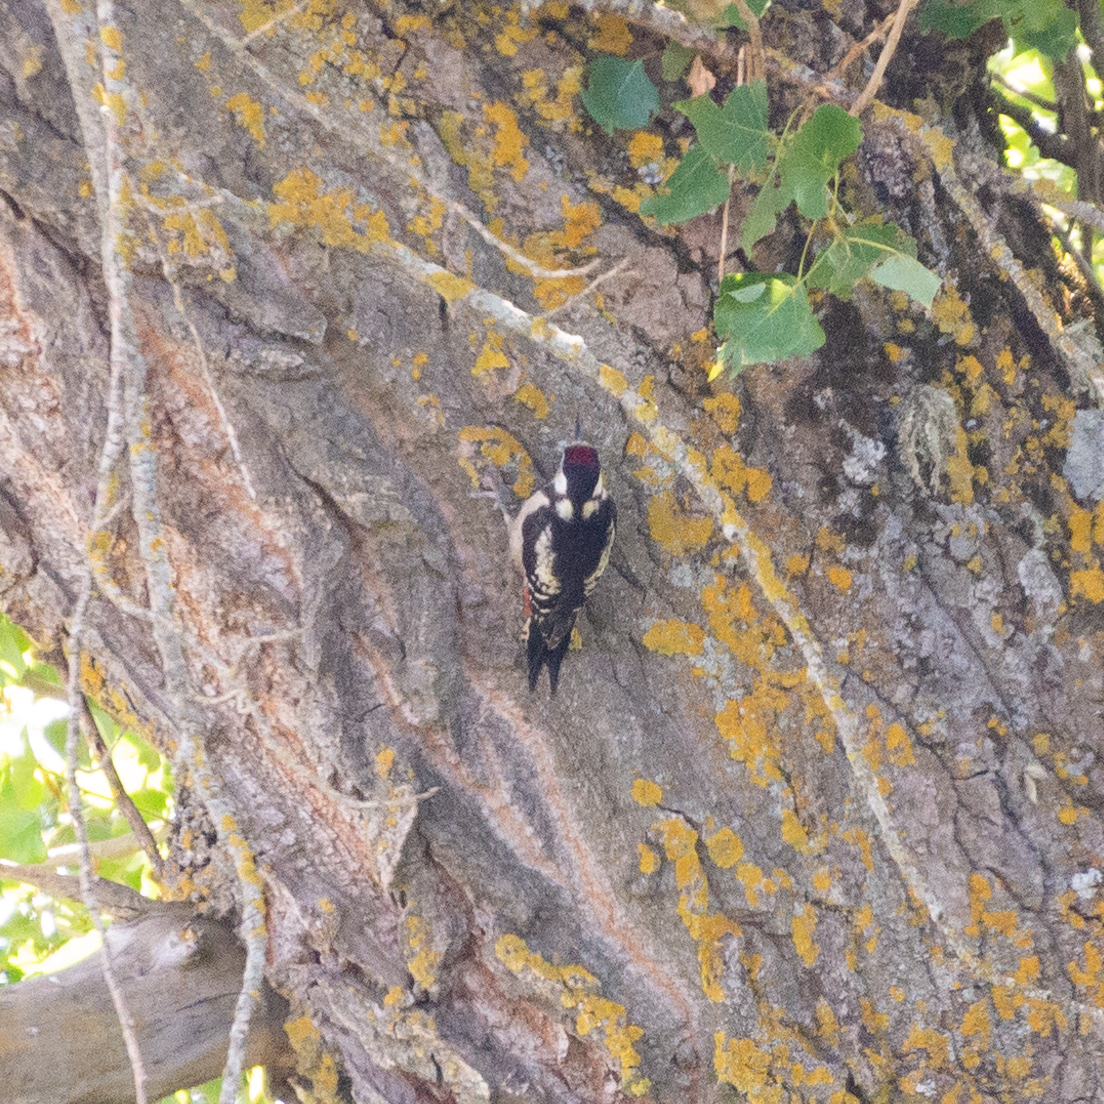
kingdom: Animalia
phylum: Chordata
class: Aves
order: Piciformes
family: Picidae
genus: Dendrocopos
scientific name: Dendrocopos major
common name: Great spotted woodpecker
